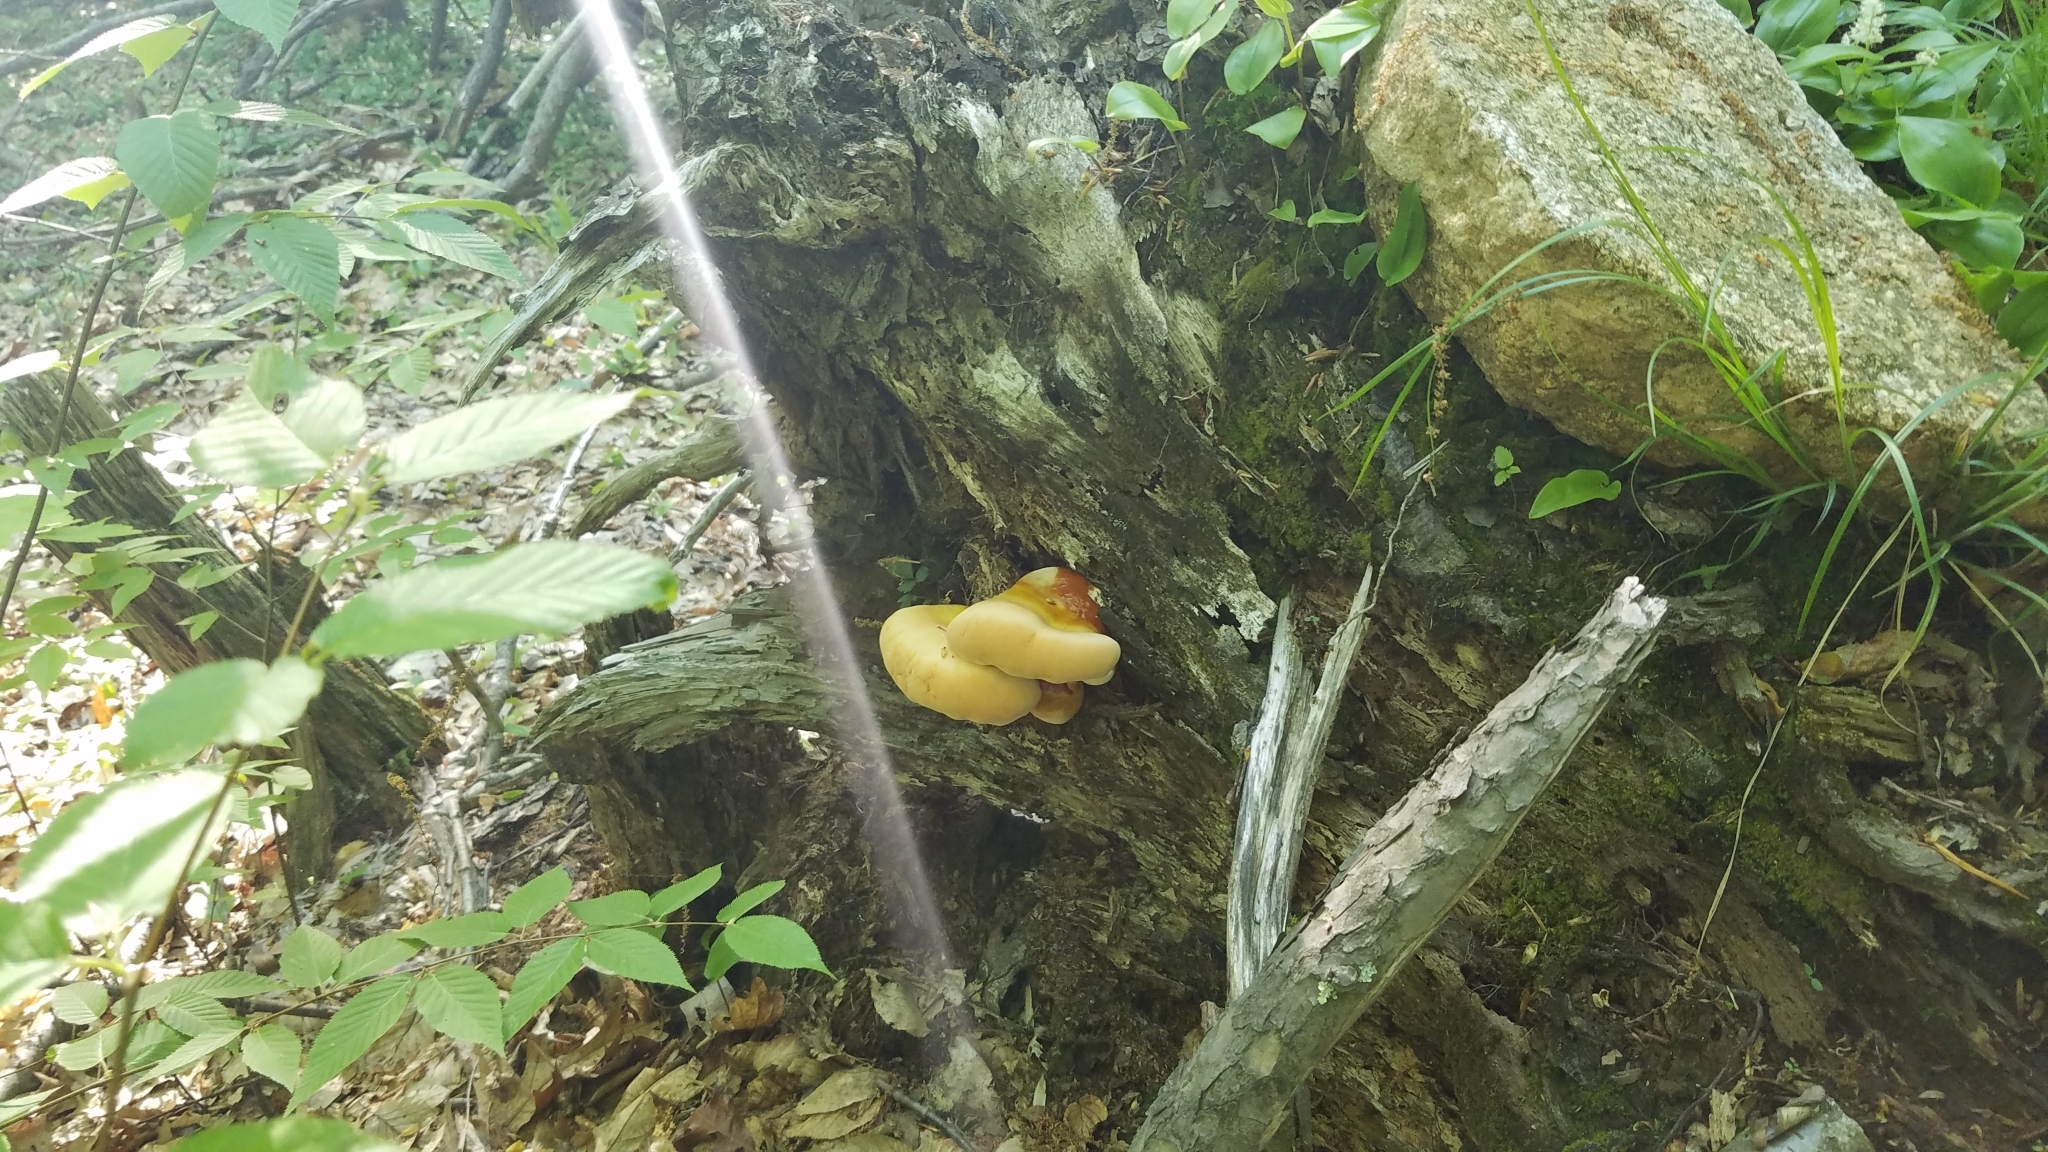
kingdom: Fungi
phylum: Basidiomycota
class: Agaricomycetes
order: Polyporales
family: Polyporaceae
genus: Ganoderma
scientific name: Ganoderma tsugae
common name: Hemlock varnish shelf
